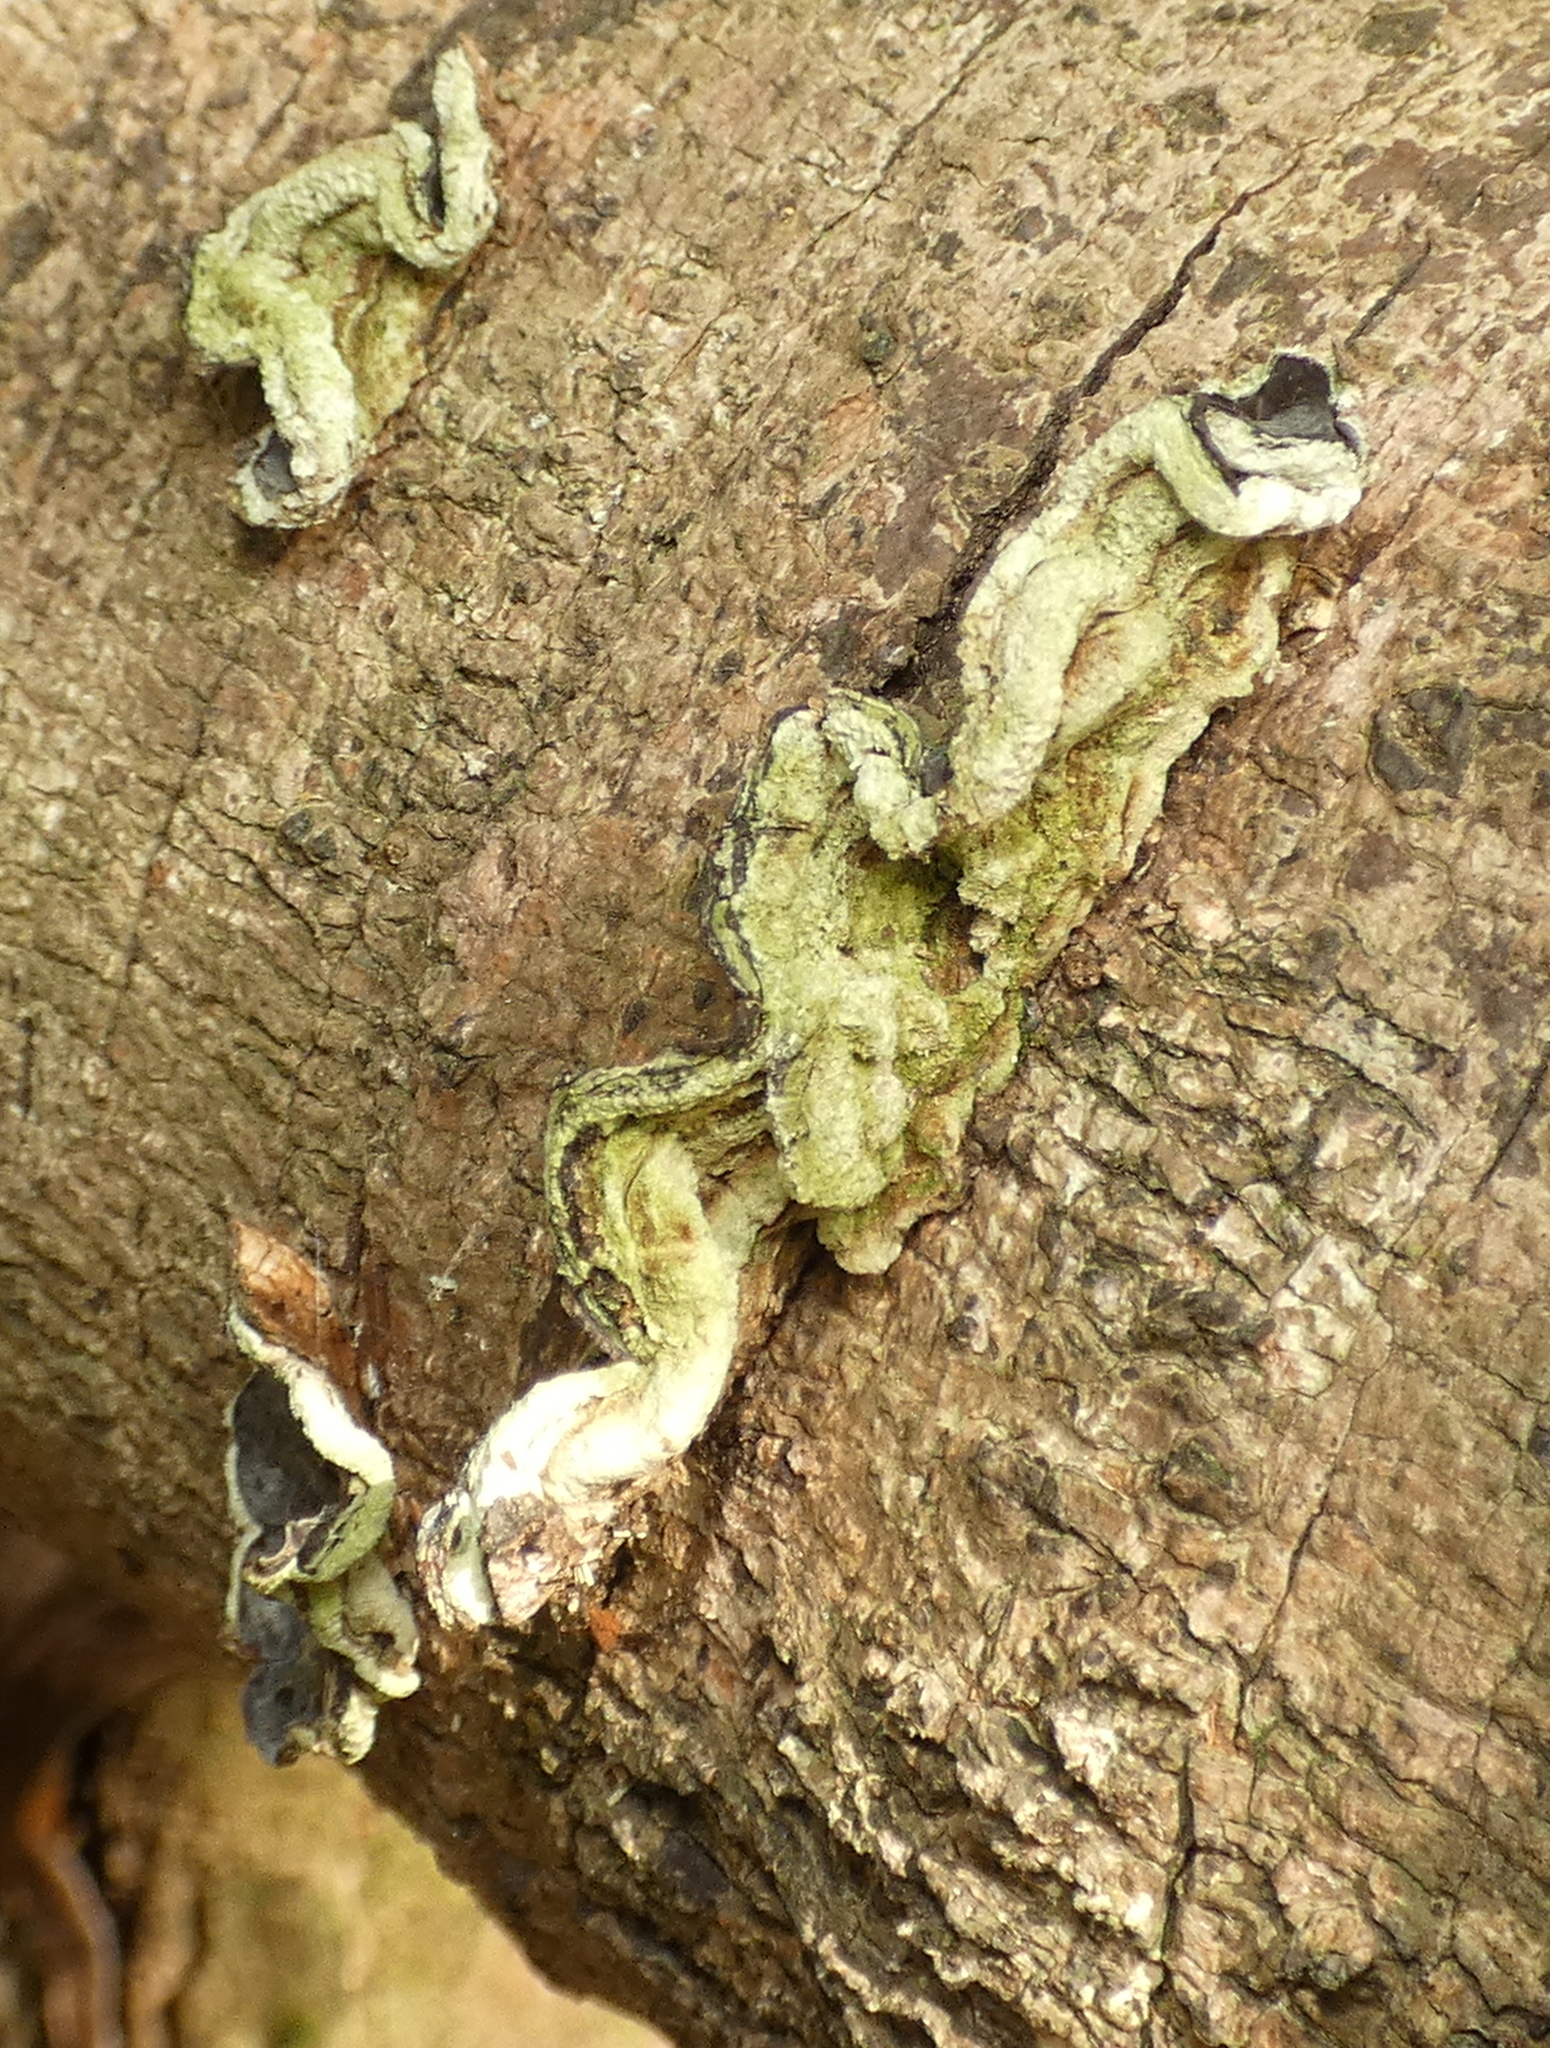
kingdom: Fungi
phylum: Basidiomycota
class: Agaricomycetes
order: Auriculariales
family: Auriculariaceae
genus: Auricularia
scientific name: Auricularia brasiliana
